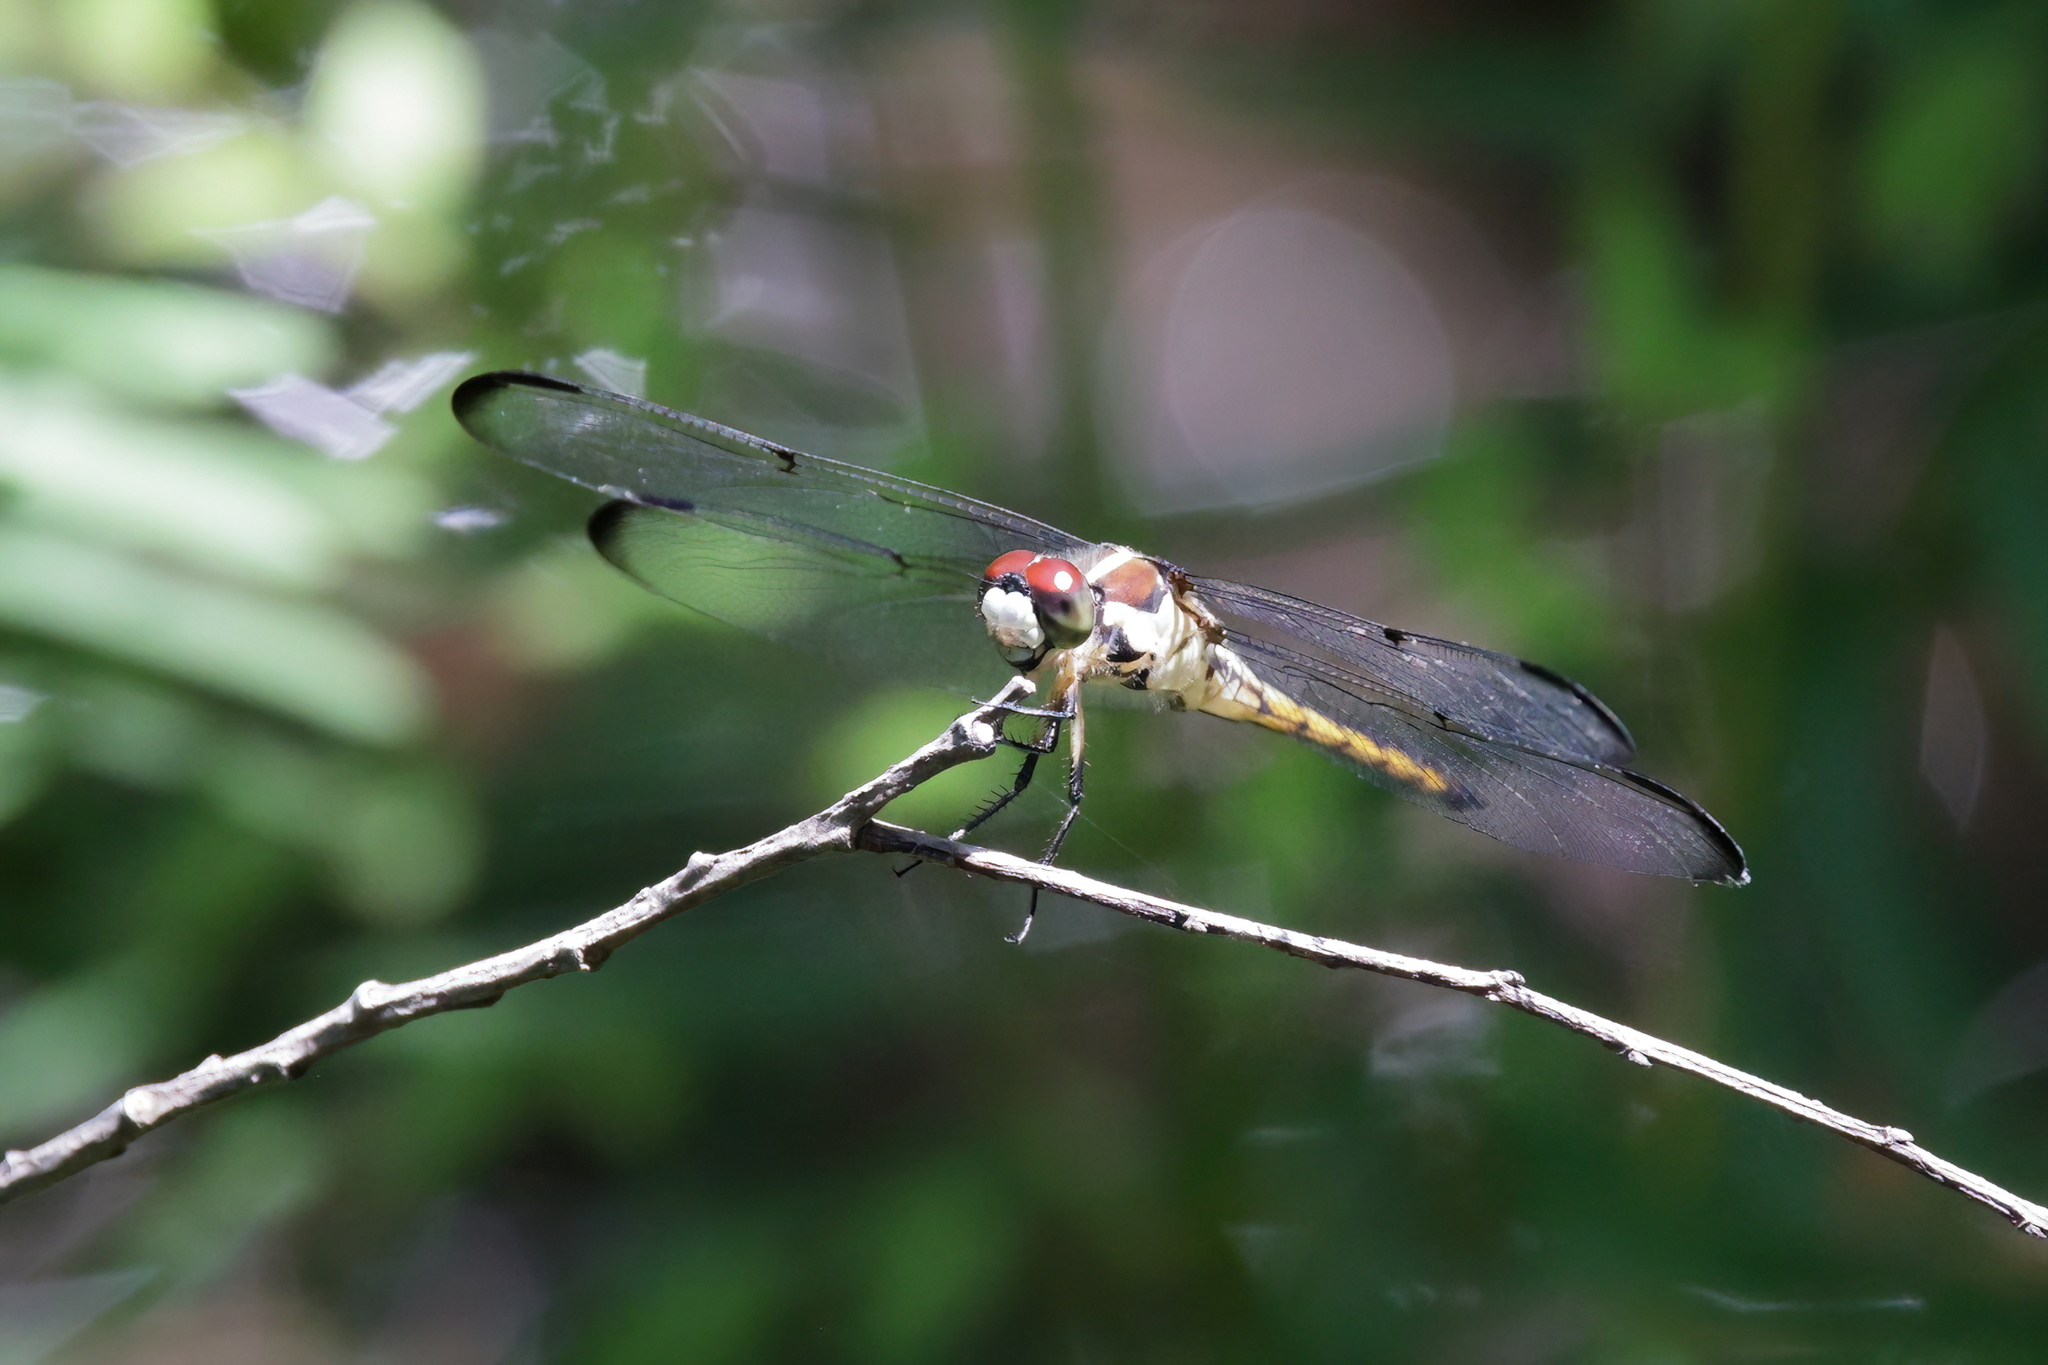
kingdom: Animalia
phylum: Arthropoda
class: Insecta
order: Odonata
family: Libellulidae
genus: Libellula
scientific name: Libellula vibrans
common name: Great blue skimmer
